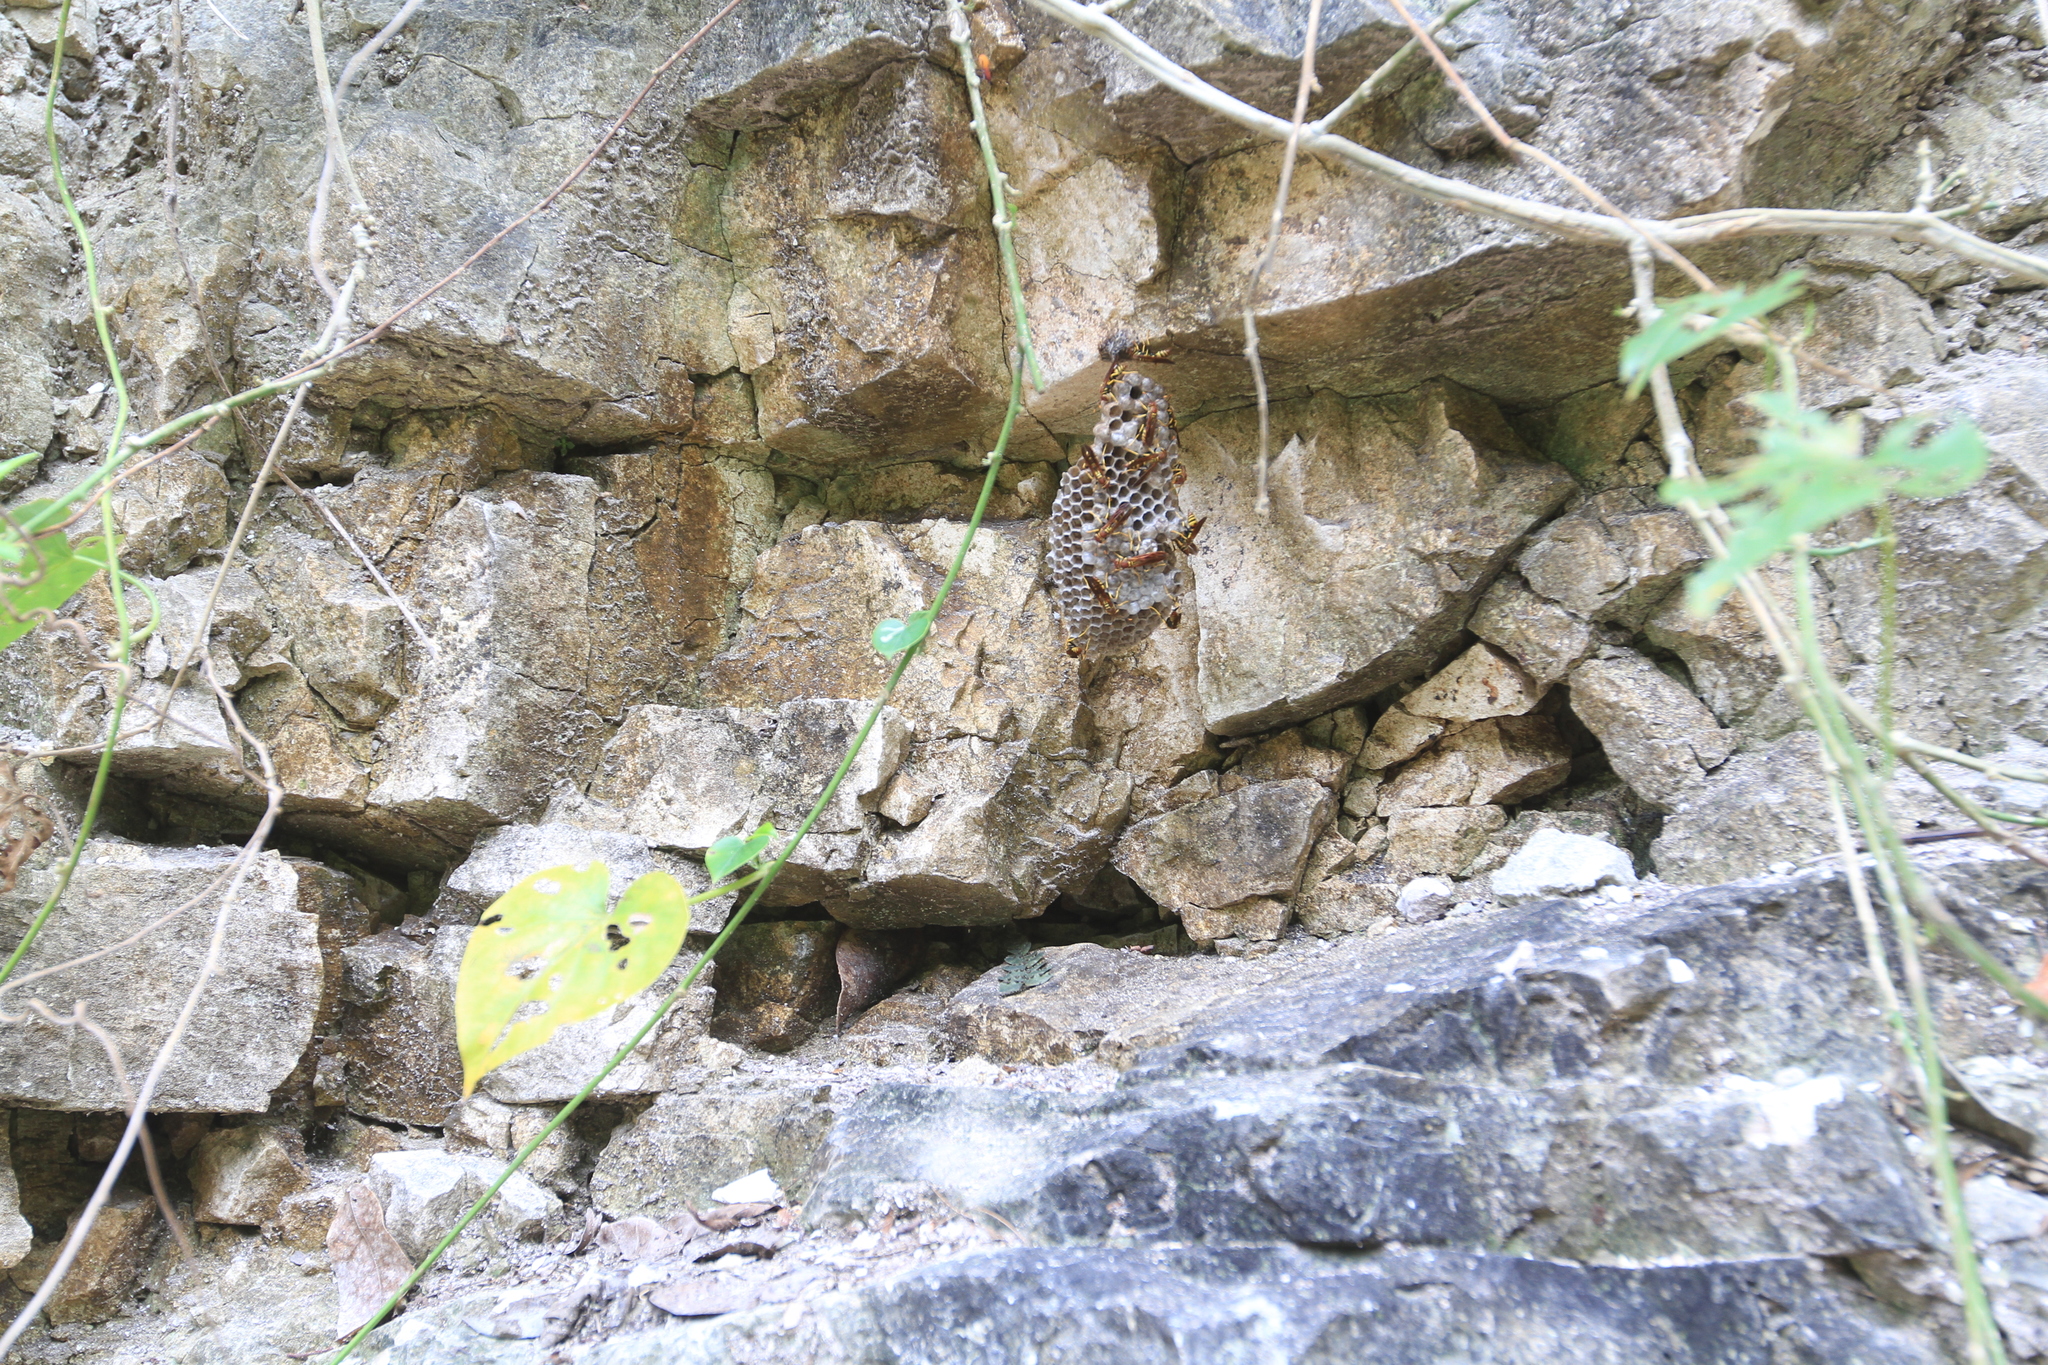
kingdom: Animalia
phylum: Arthropoda
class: Insecta
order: Hymenoptera
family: Eumenidae
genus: Polistes
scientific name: Polistes minor
